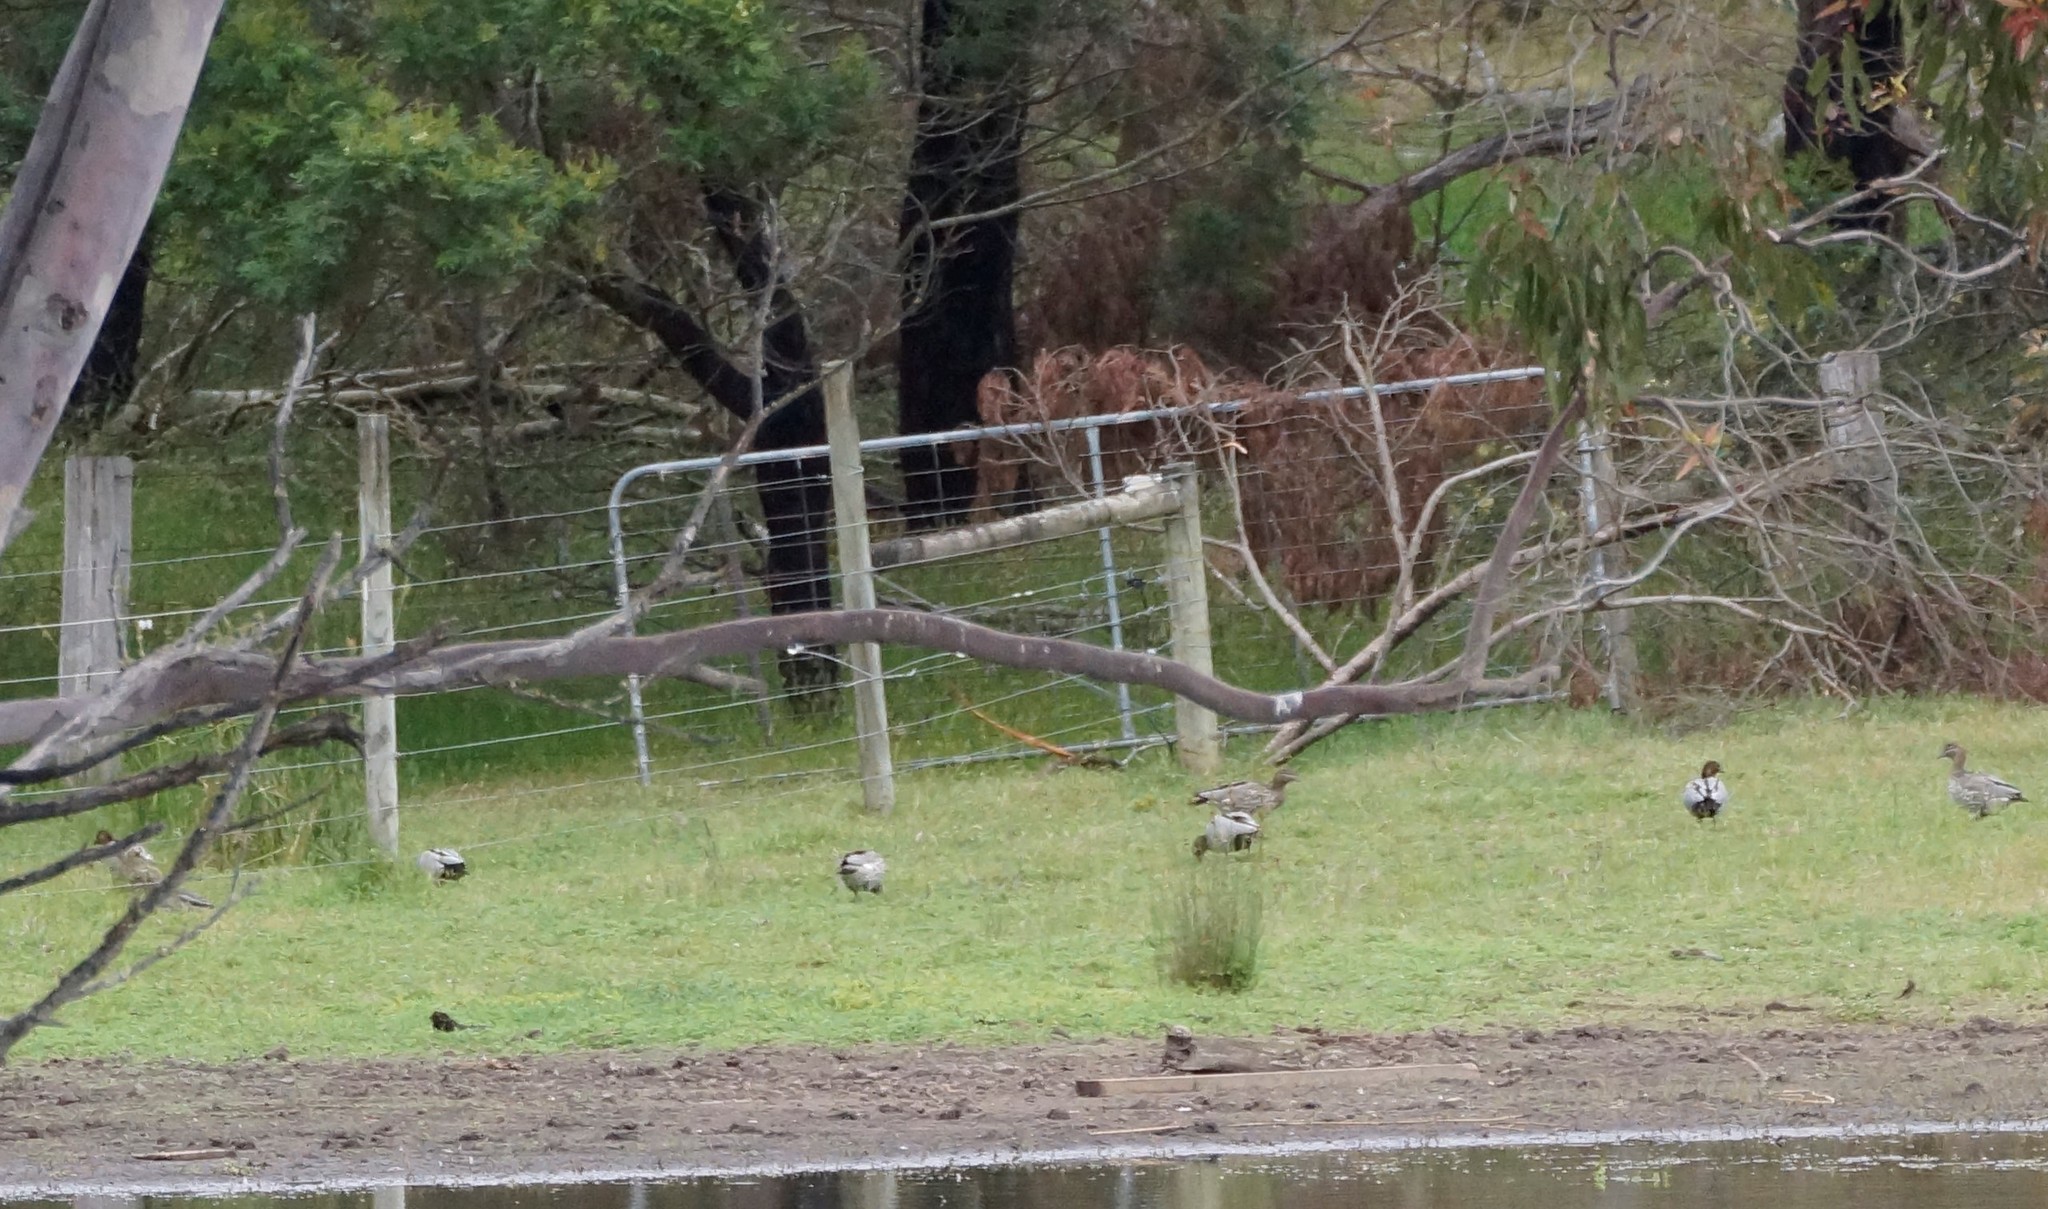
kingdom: Animalia
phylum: Chordata
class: Aves
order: Anseriformes
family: Anatidae
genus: Chenonetta
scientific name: Chenonetta jubata
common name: Maned duck
